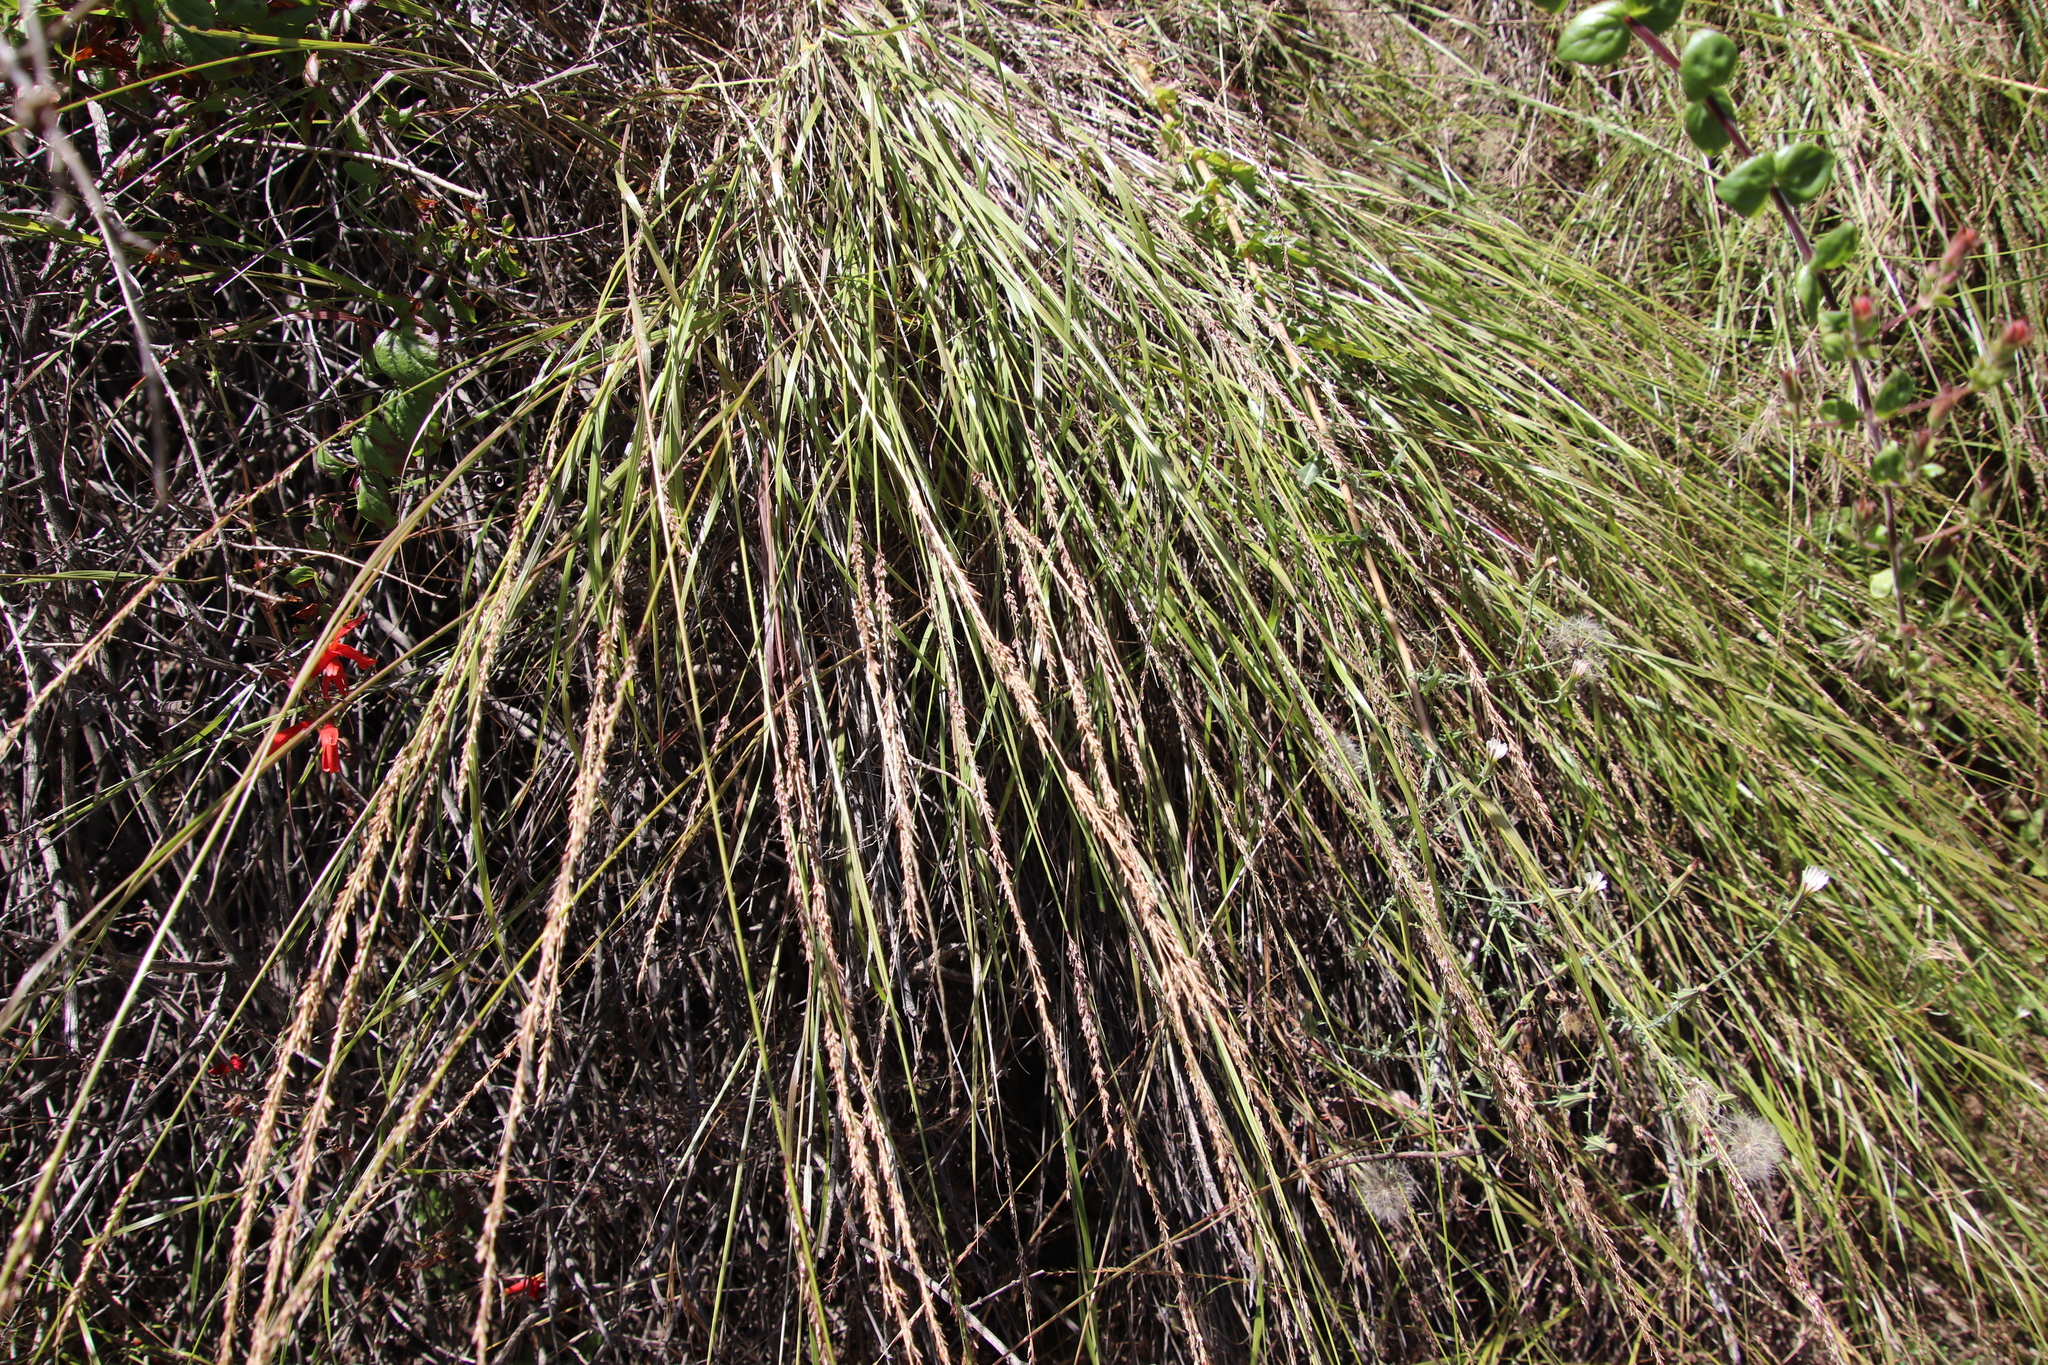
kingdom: Plantae
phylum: Tracheophyta
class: Liliopsida
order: Poales
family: Poaceae
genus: Melica
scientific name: Melica imperfecta
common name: California melic
